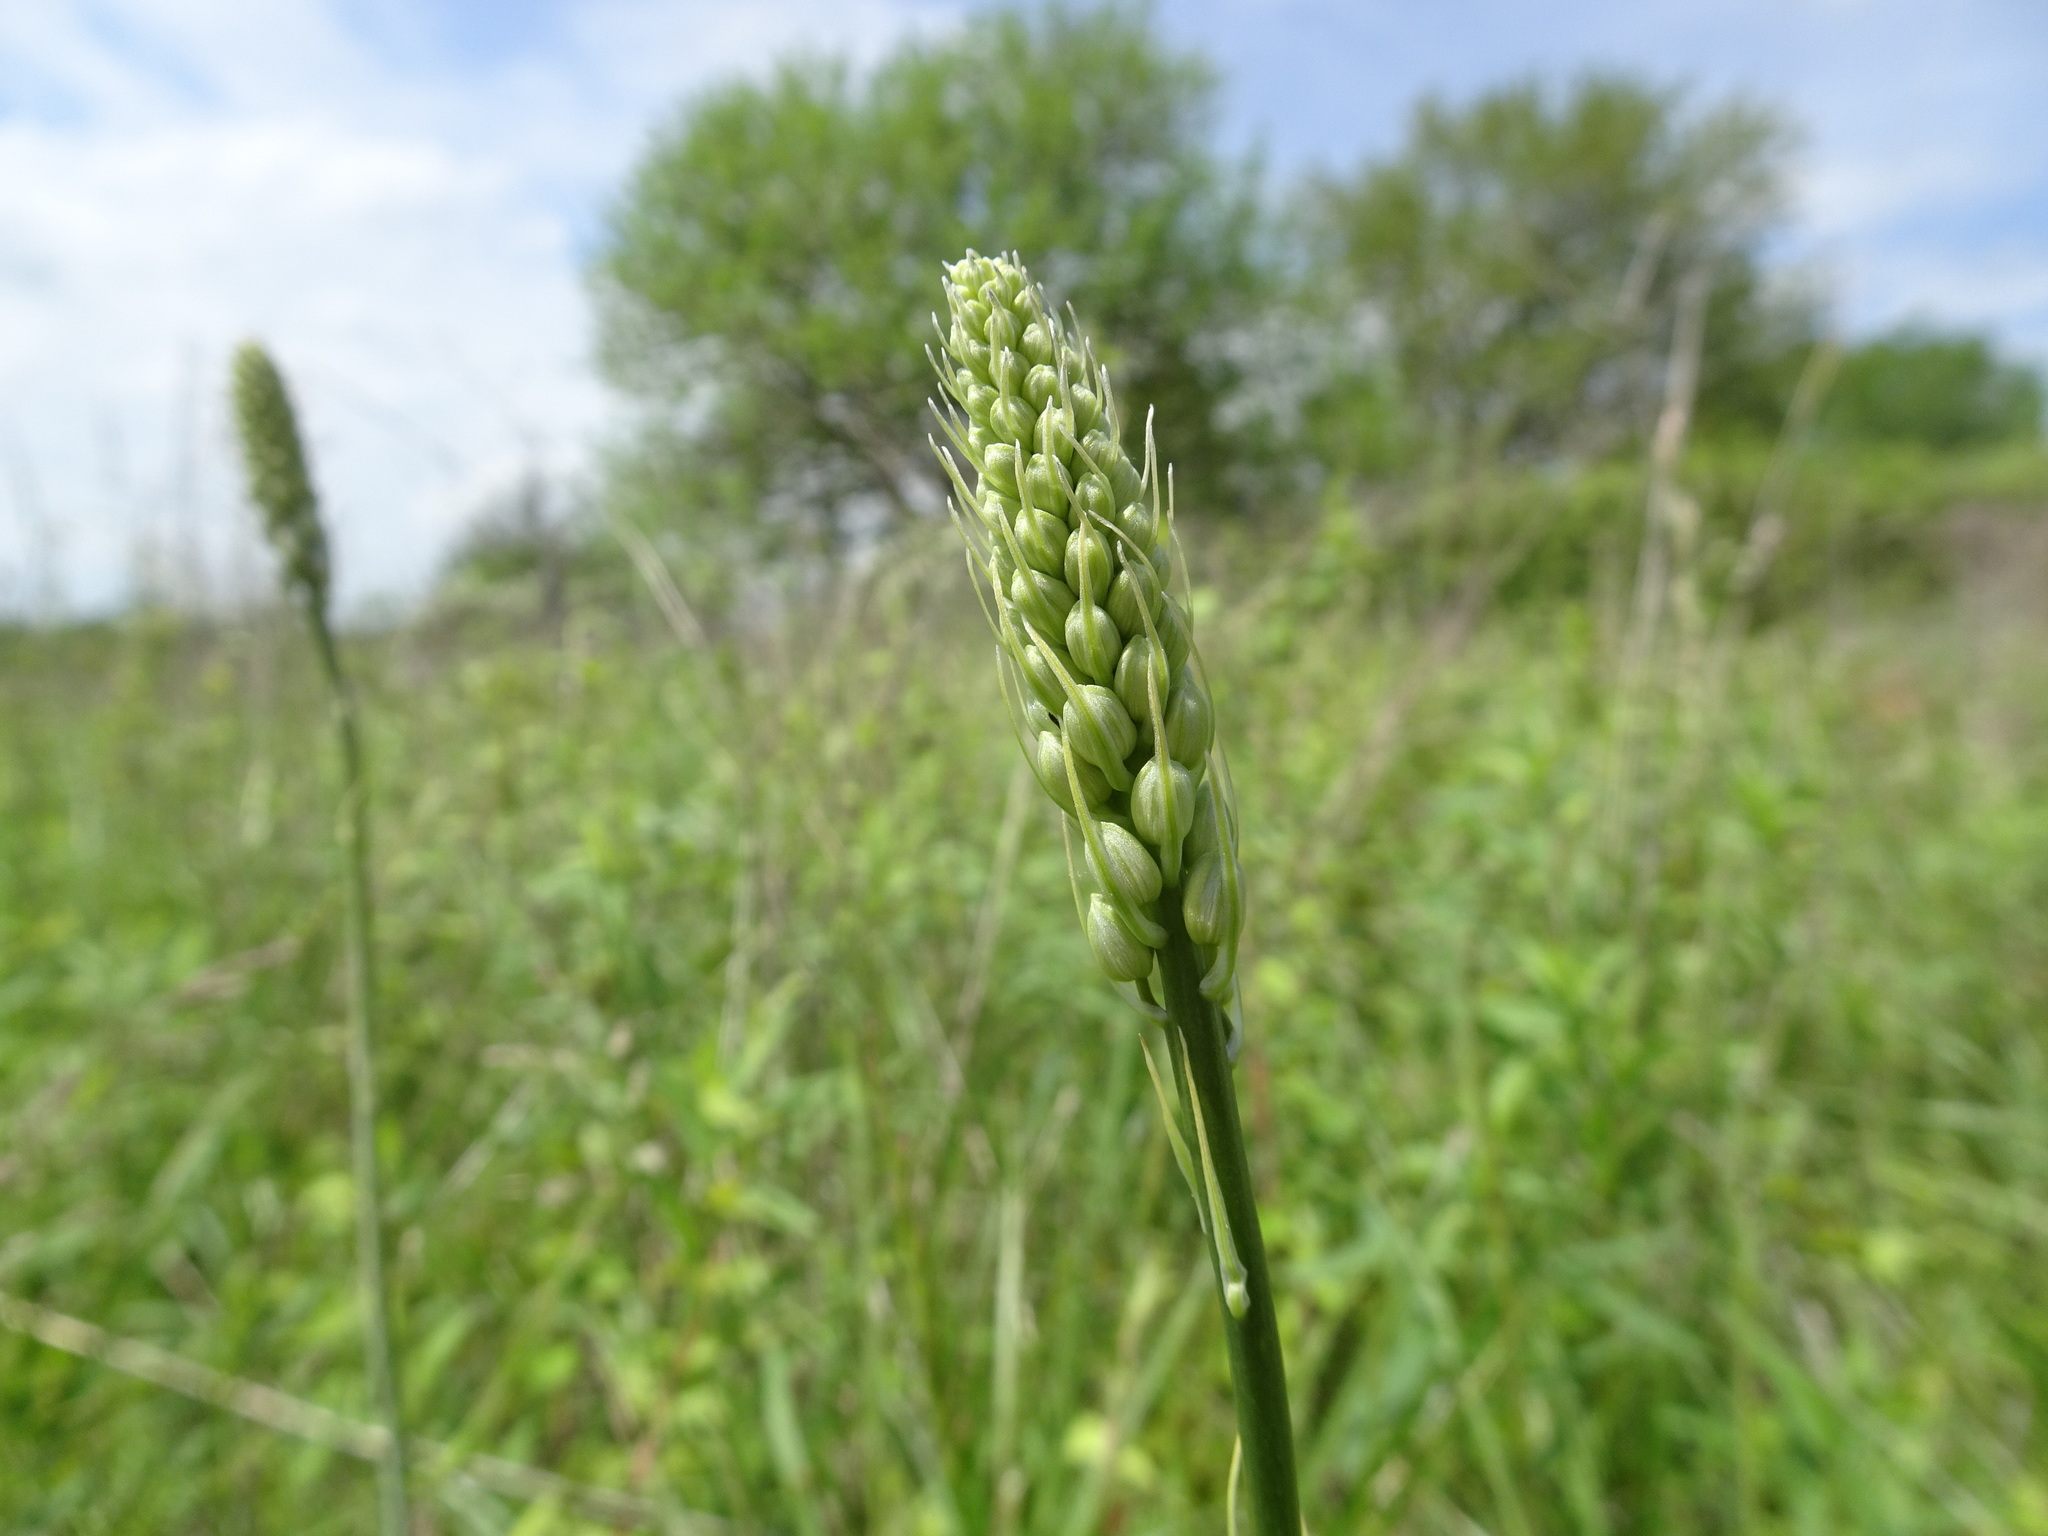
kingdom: Plantae
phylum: Tracheophyta
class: Liliopsida
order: Asparagales
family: Asparagaceae
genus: Camassia
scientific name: Camassia angusta
